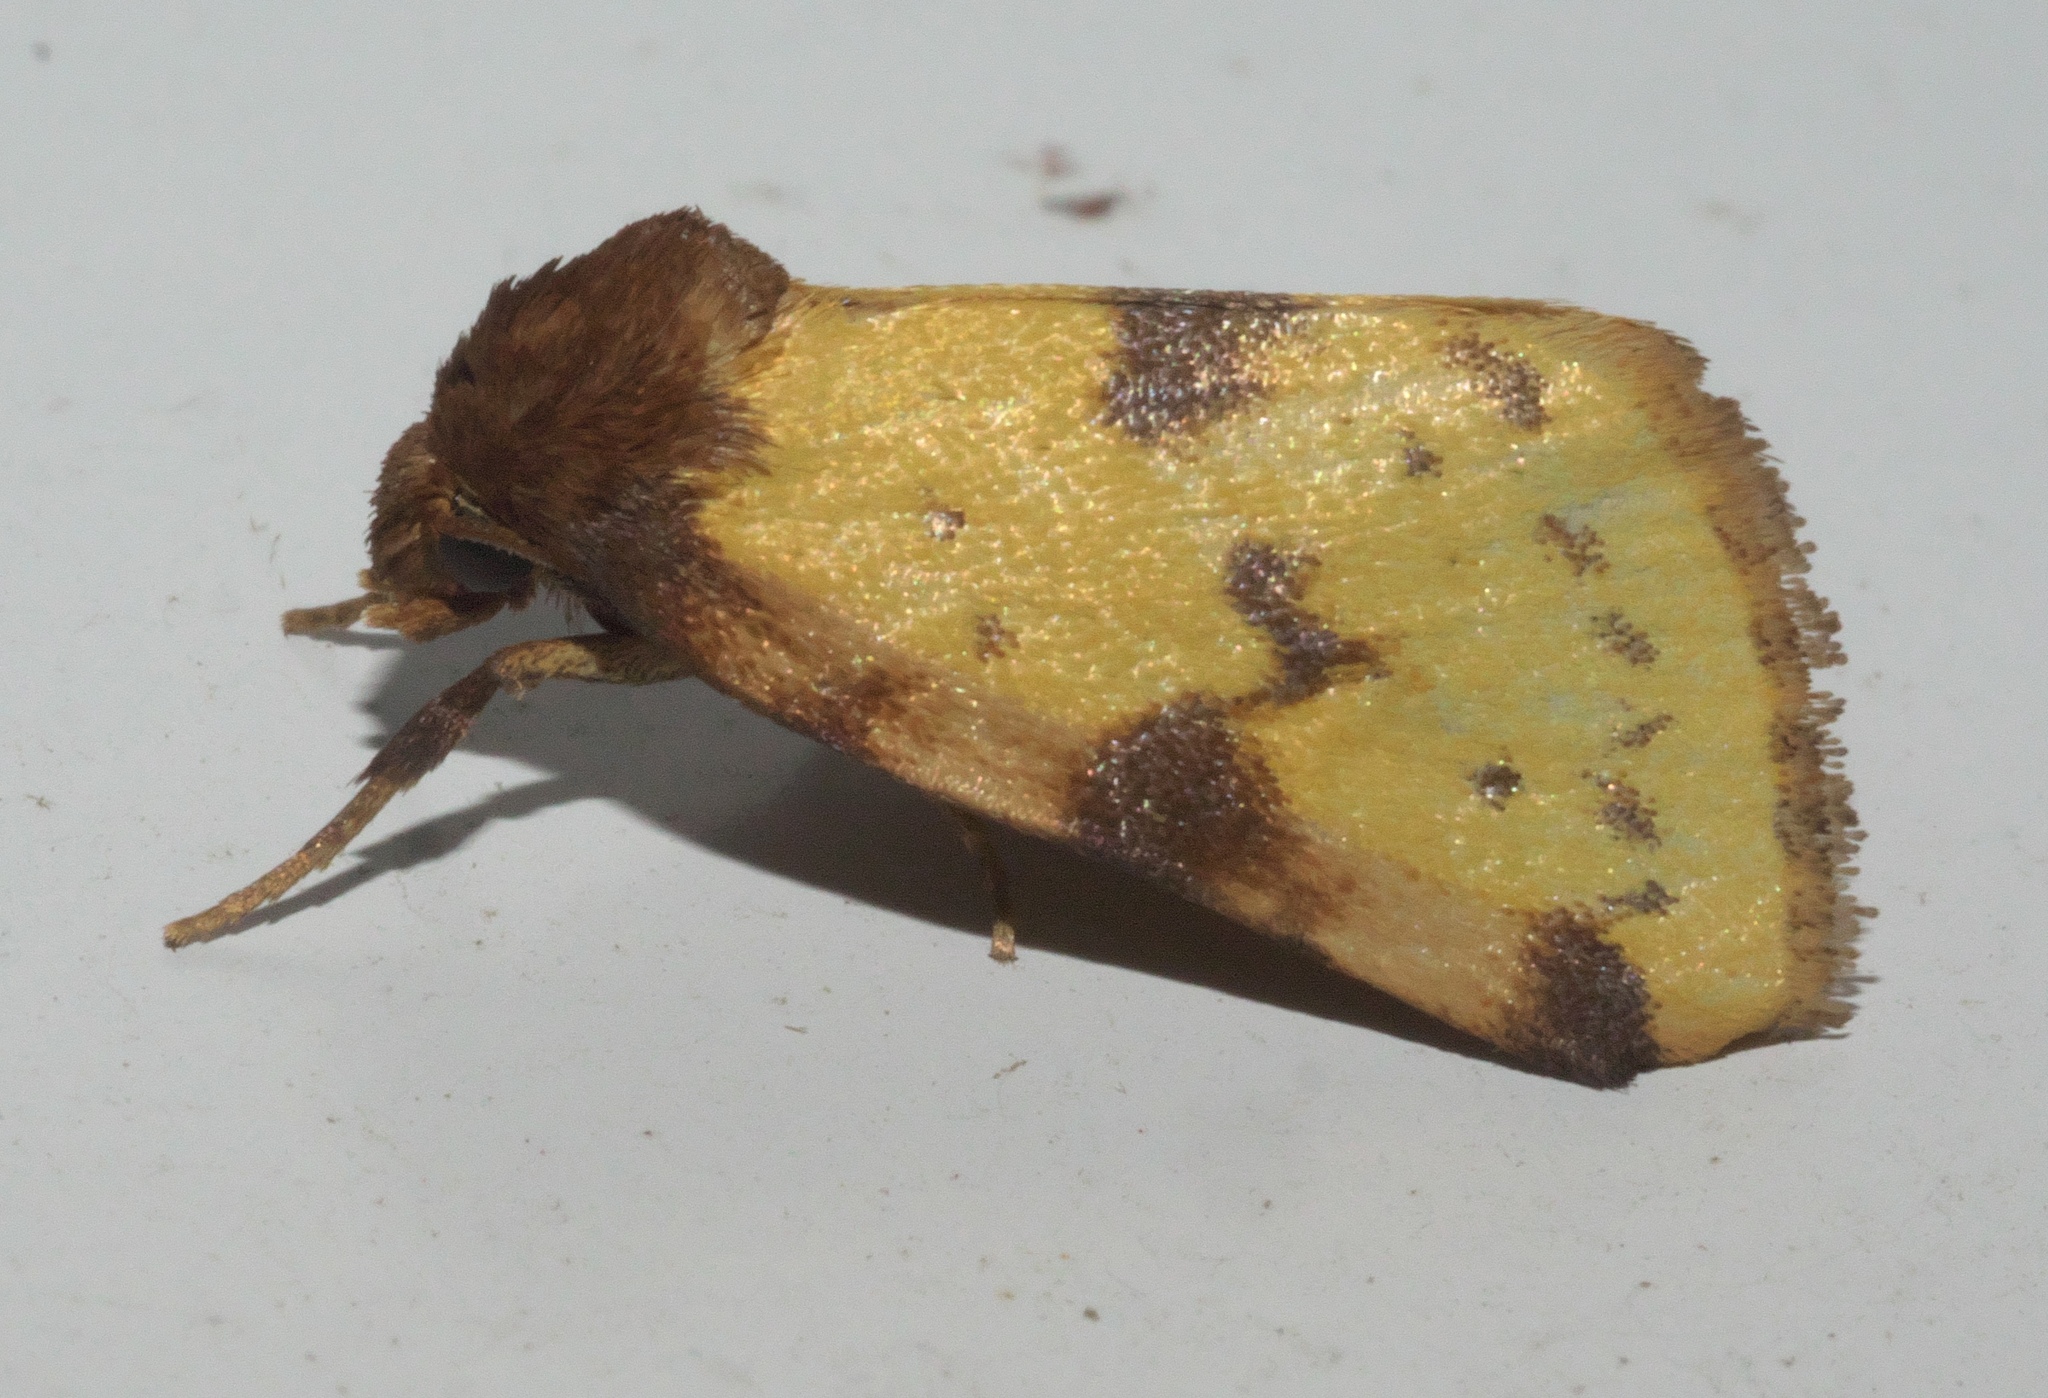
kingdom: Animalia
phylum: Arthropoda
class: Insecta
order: Lepidoptera
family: Noctuidae
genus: Azenia
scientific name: Azenia obtusa
